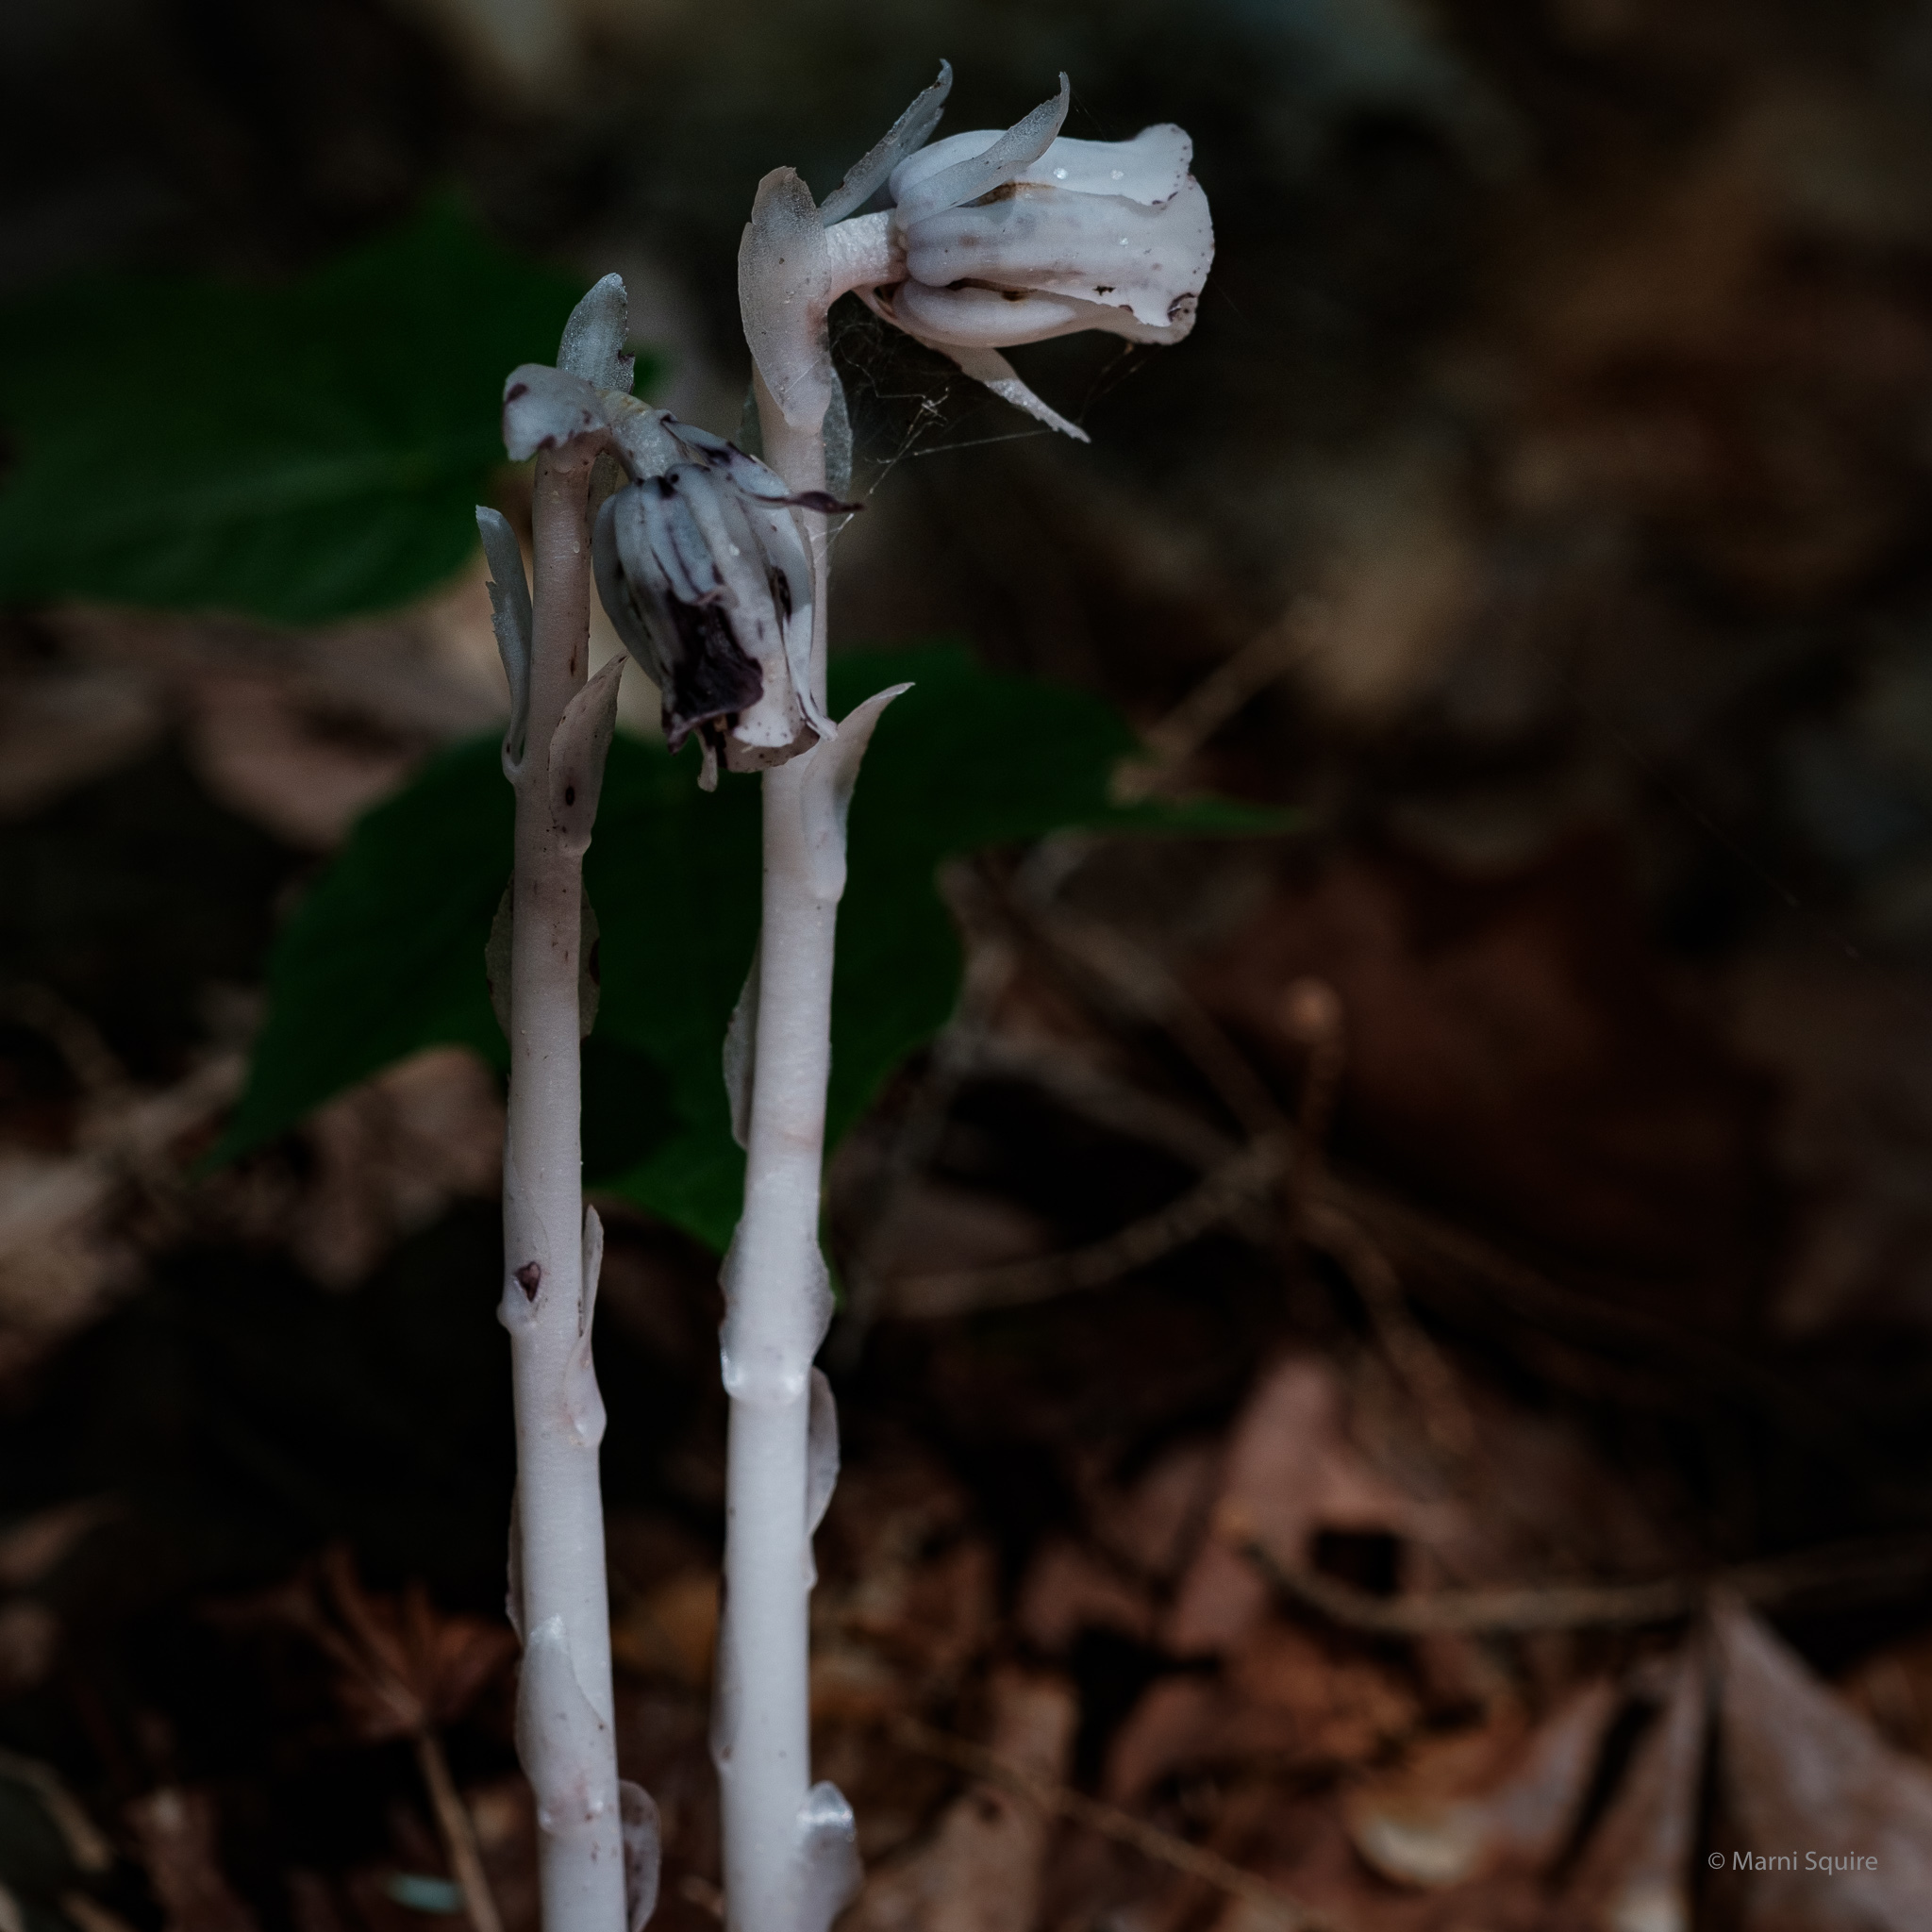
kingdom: Plantae
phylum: Tracheophyta
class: Magnoliopsida
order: Ericales
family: Ericaceae
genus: Monotropa
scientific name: Monotropa uniflora
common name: Convulsion root
